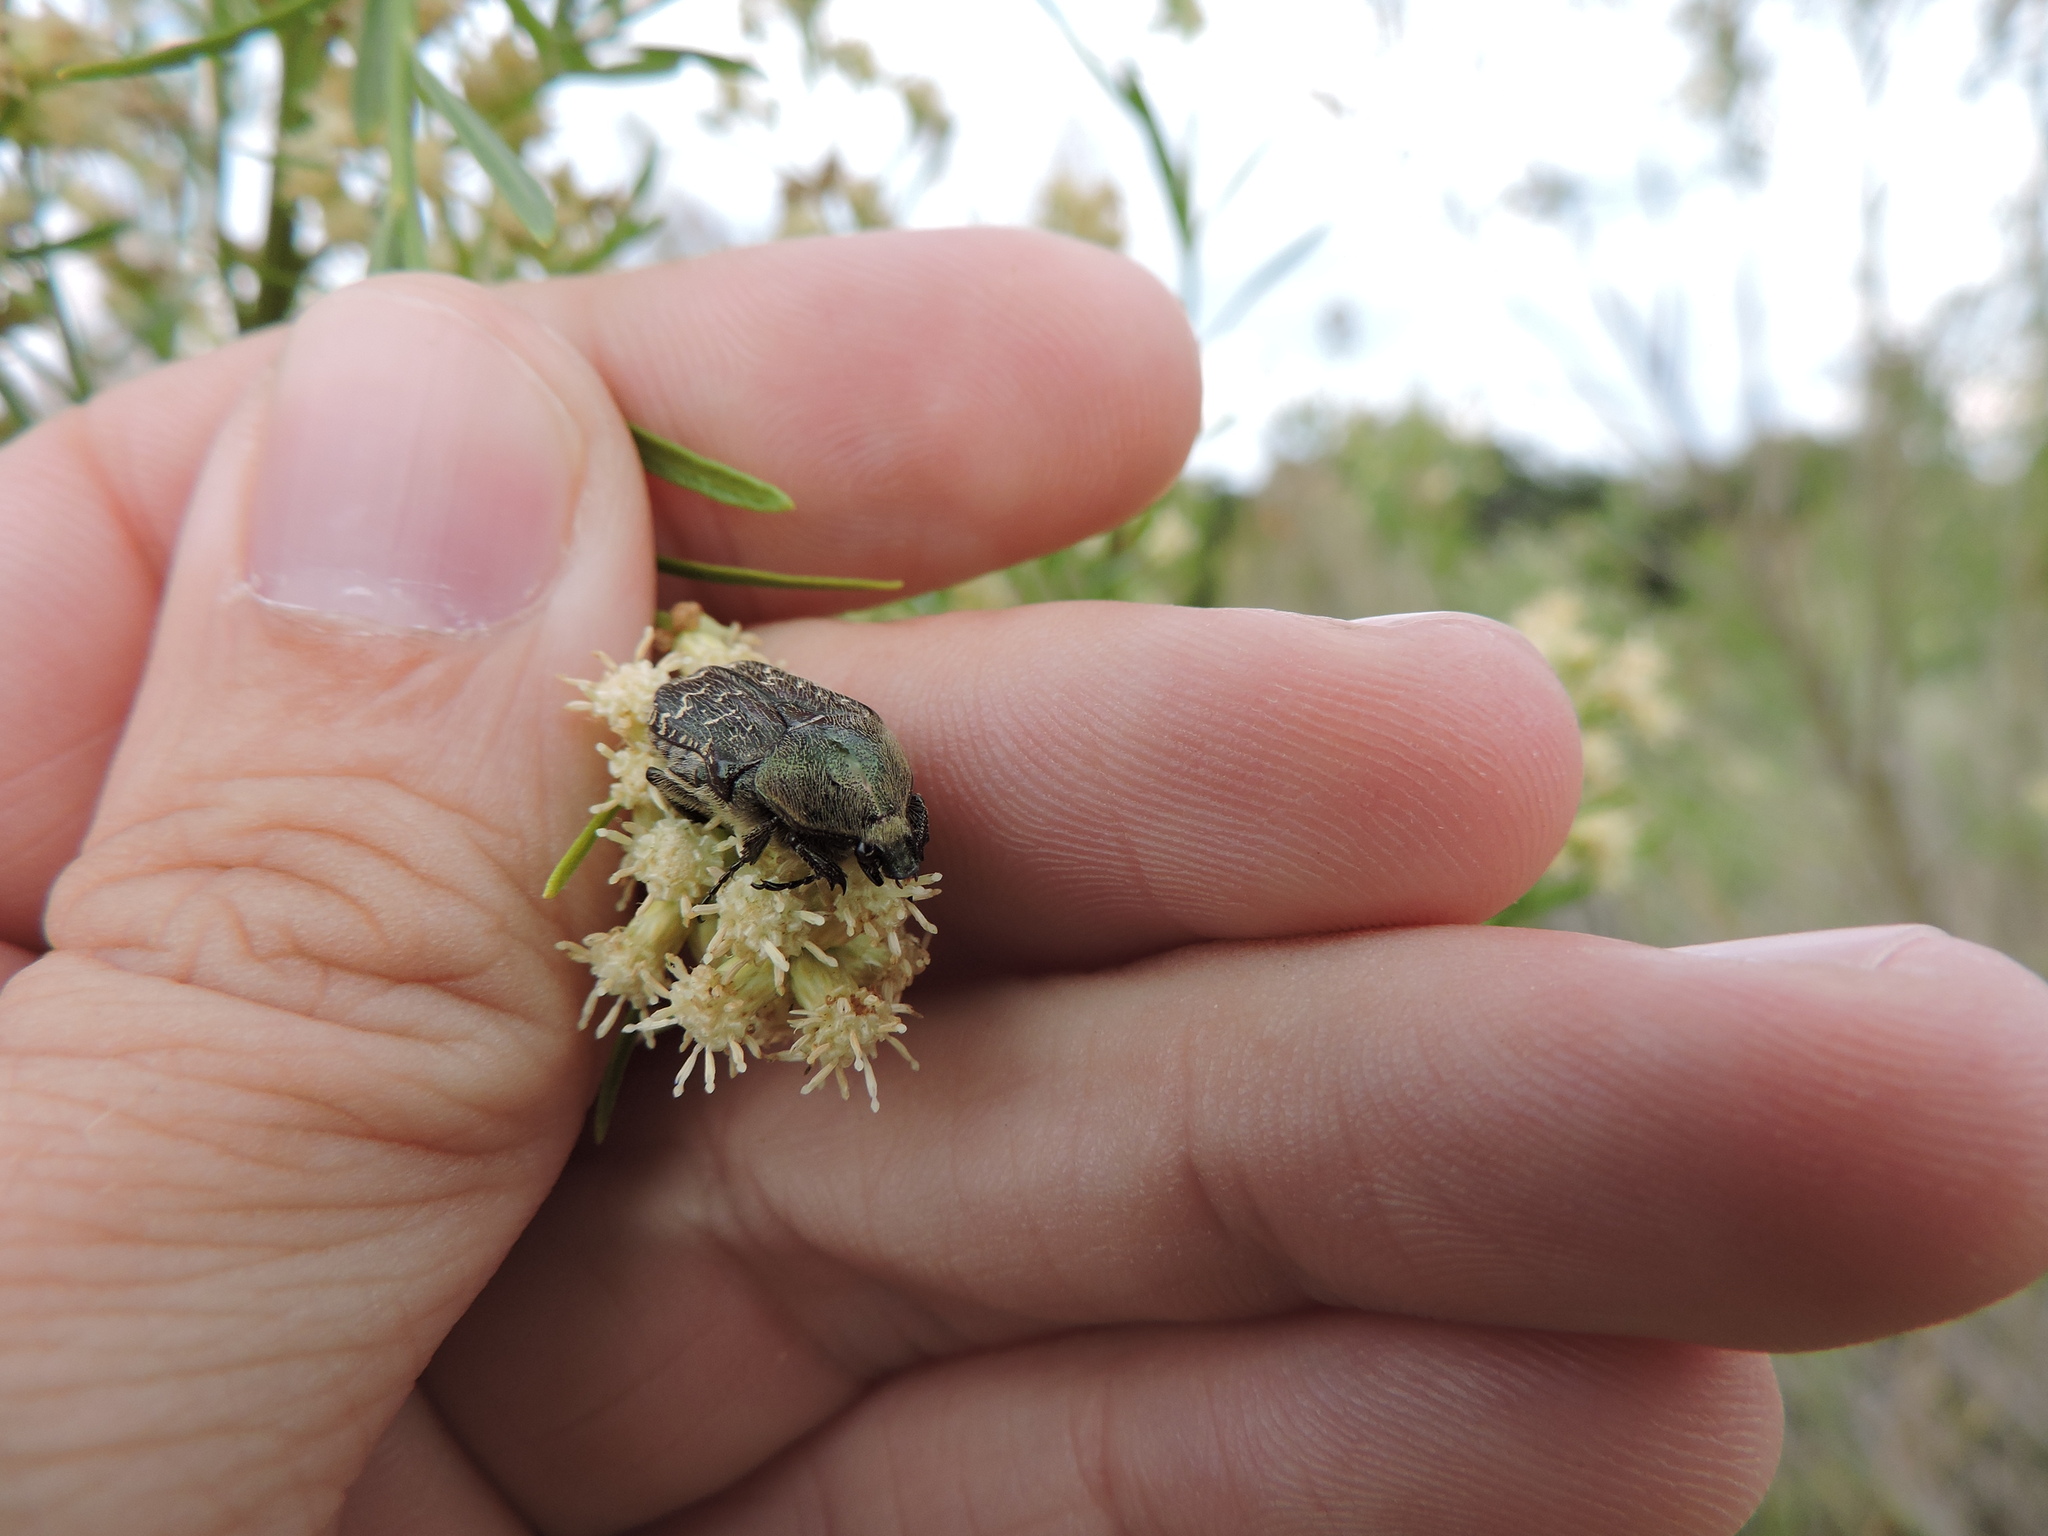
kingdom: Animalia
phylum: Arthropoda
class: Insecta
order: Coleoptera
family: Scarabaeidae
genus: Euphoria
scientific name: Euphoria sepulcralis
